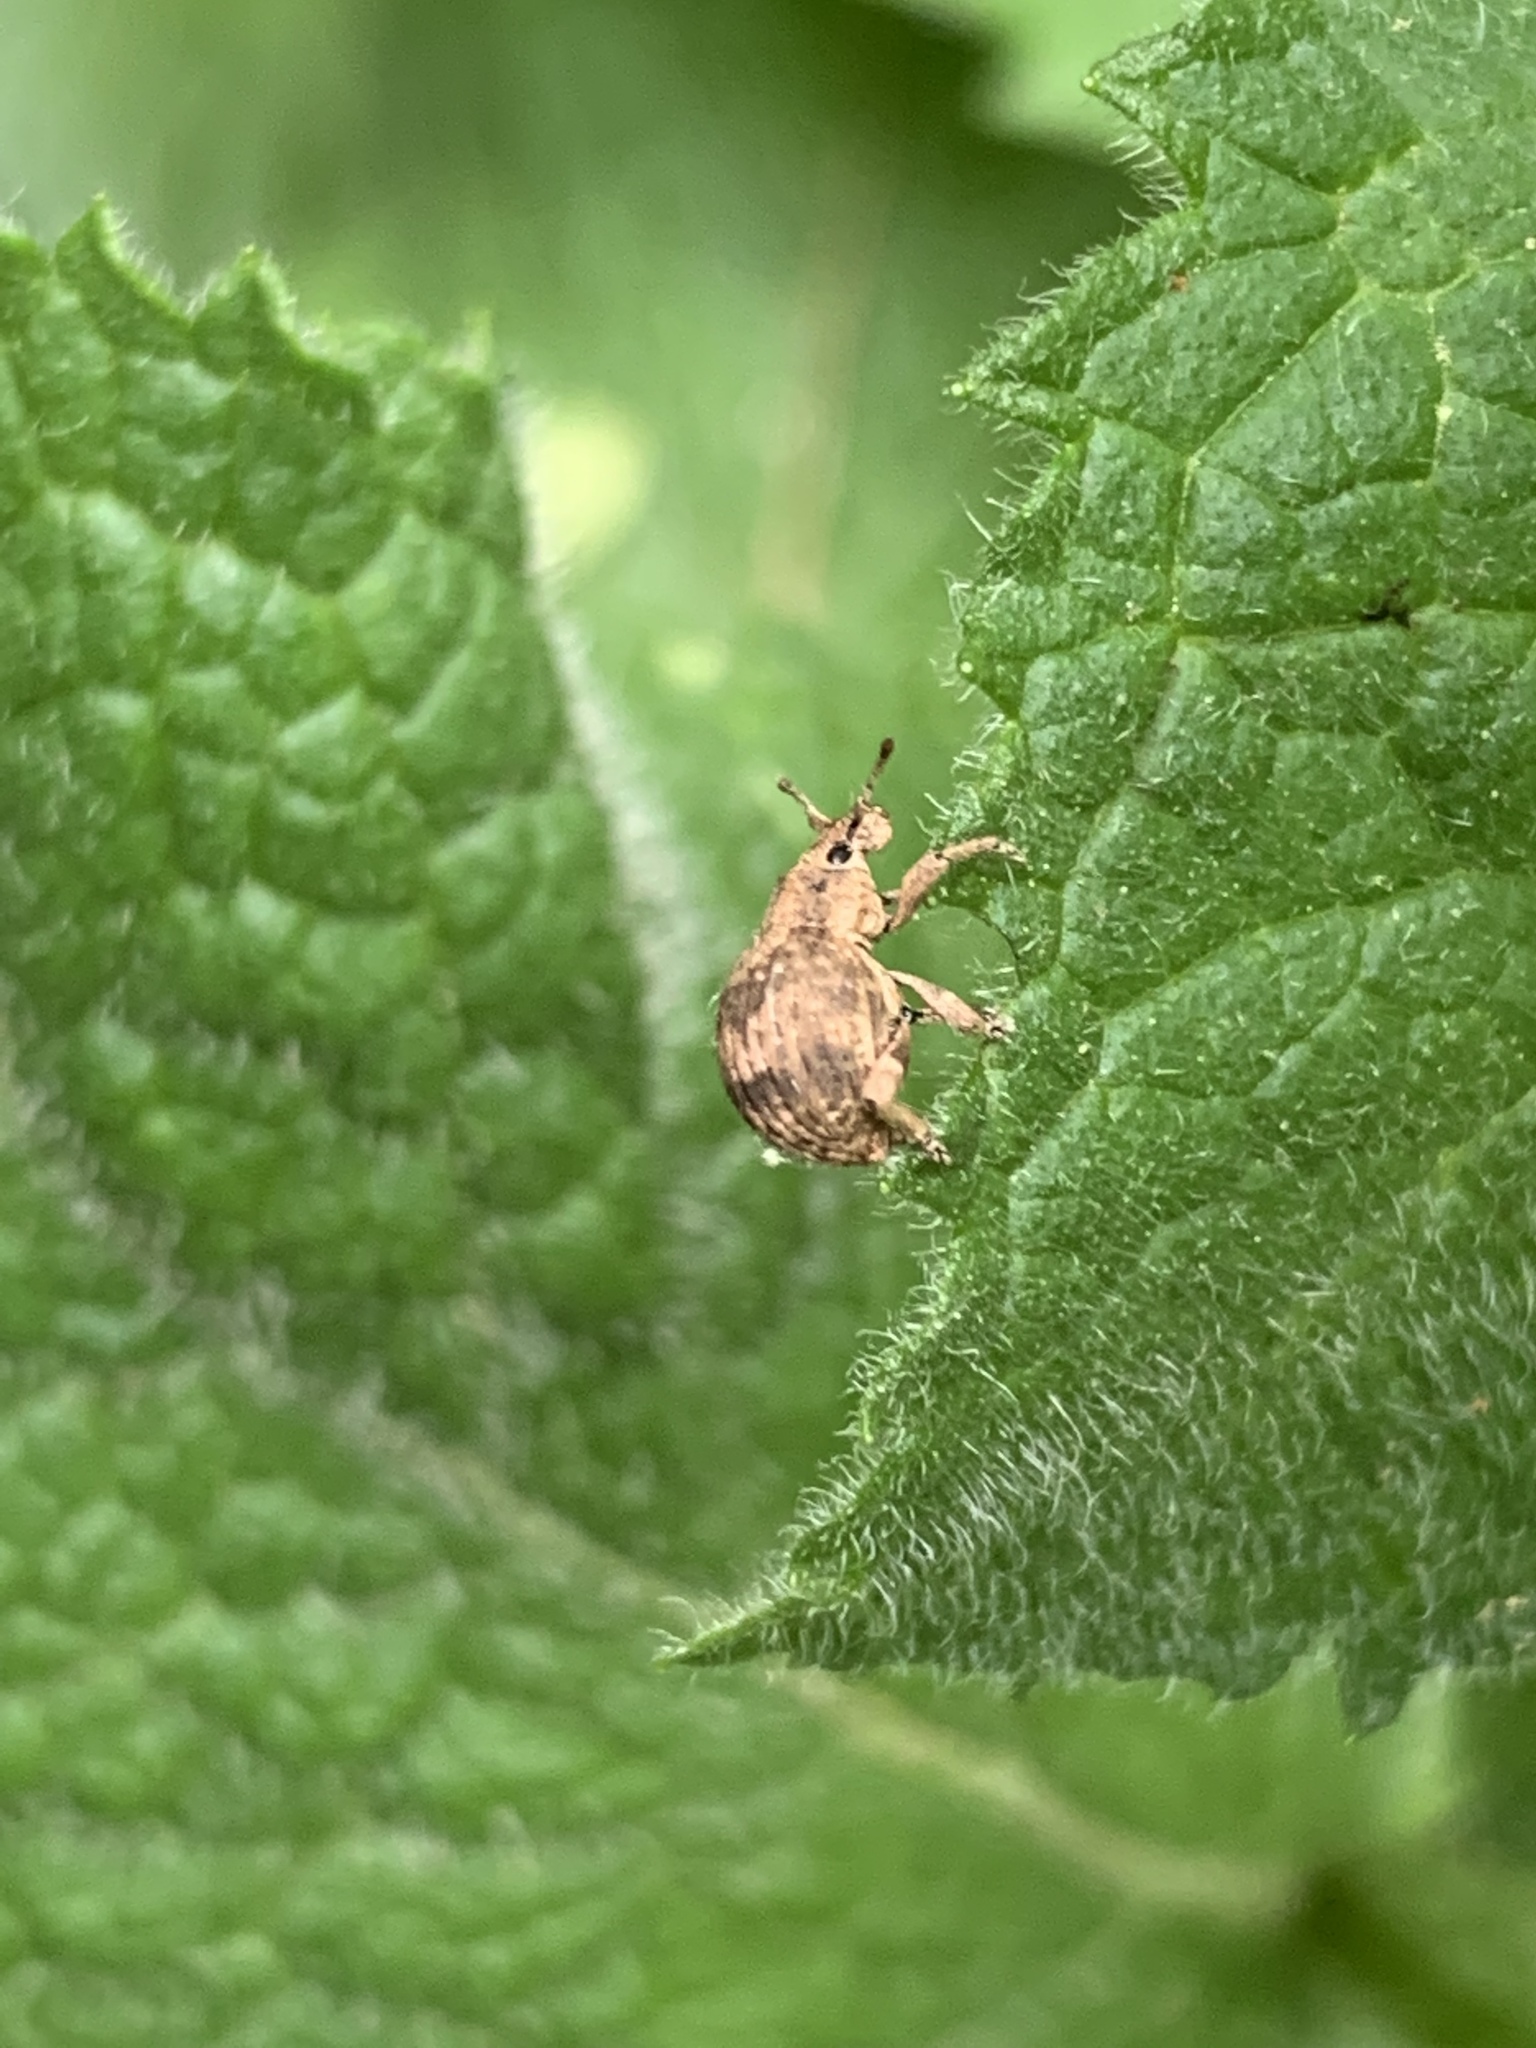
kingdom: Animalia
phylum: Arthropoda
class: Insecta
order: Coleoptera
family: Curculionidae
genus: Pseudocneorhinus
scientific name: Pseudocneorhinus bifasciatus
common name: Two-banded japanese weevil
